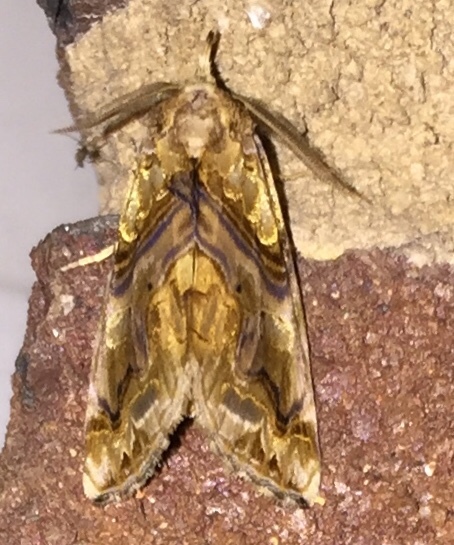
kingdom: Animalia
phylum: Arthropoda
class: Insecta
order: Lepidoptera
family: Erebidae
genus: Plusiodonta
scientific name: Plusiodonta compressipalpis
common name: Moonseed moth
